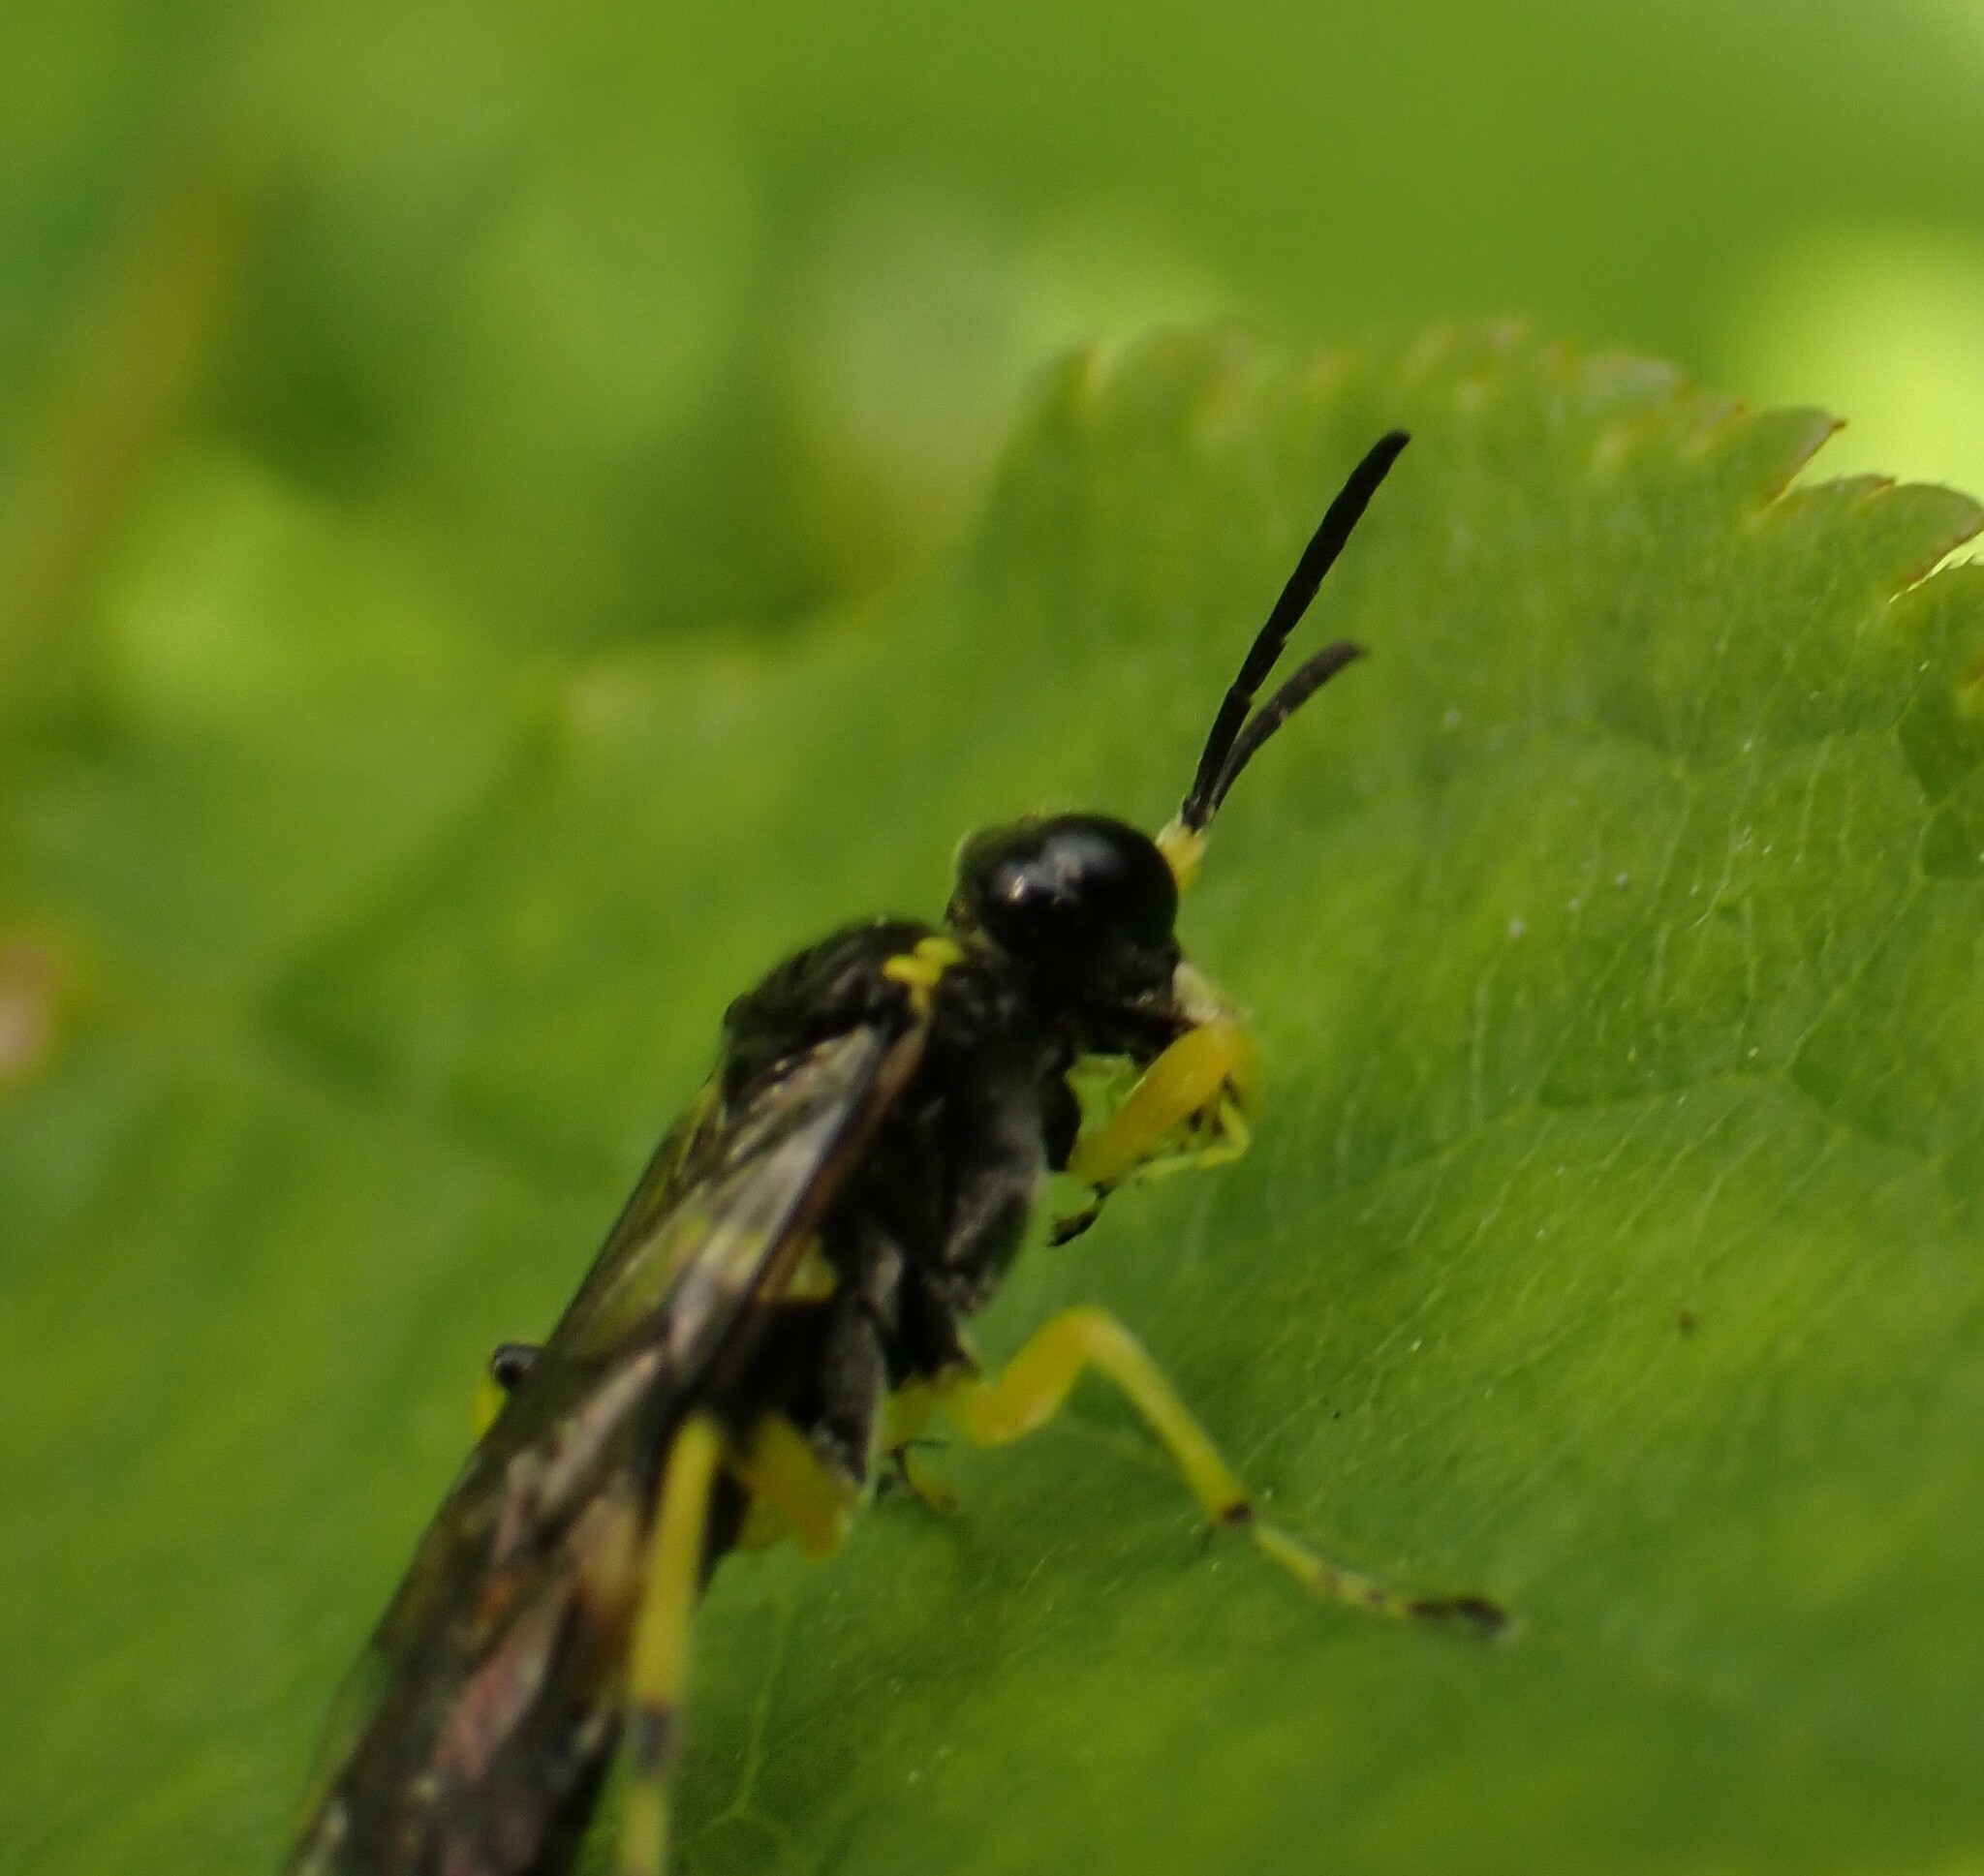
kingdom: Animalia
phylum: Arthropoda
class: Insecta
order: Hymenoptera
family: Tenthredinidae
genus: Tenthredo
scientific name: Tenthredo zonula
